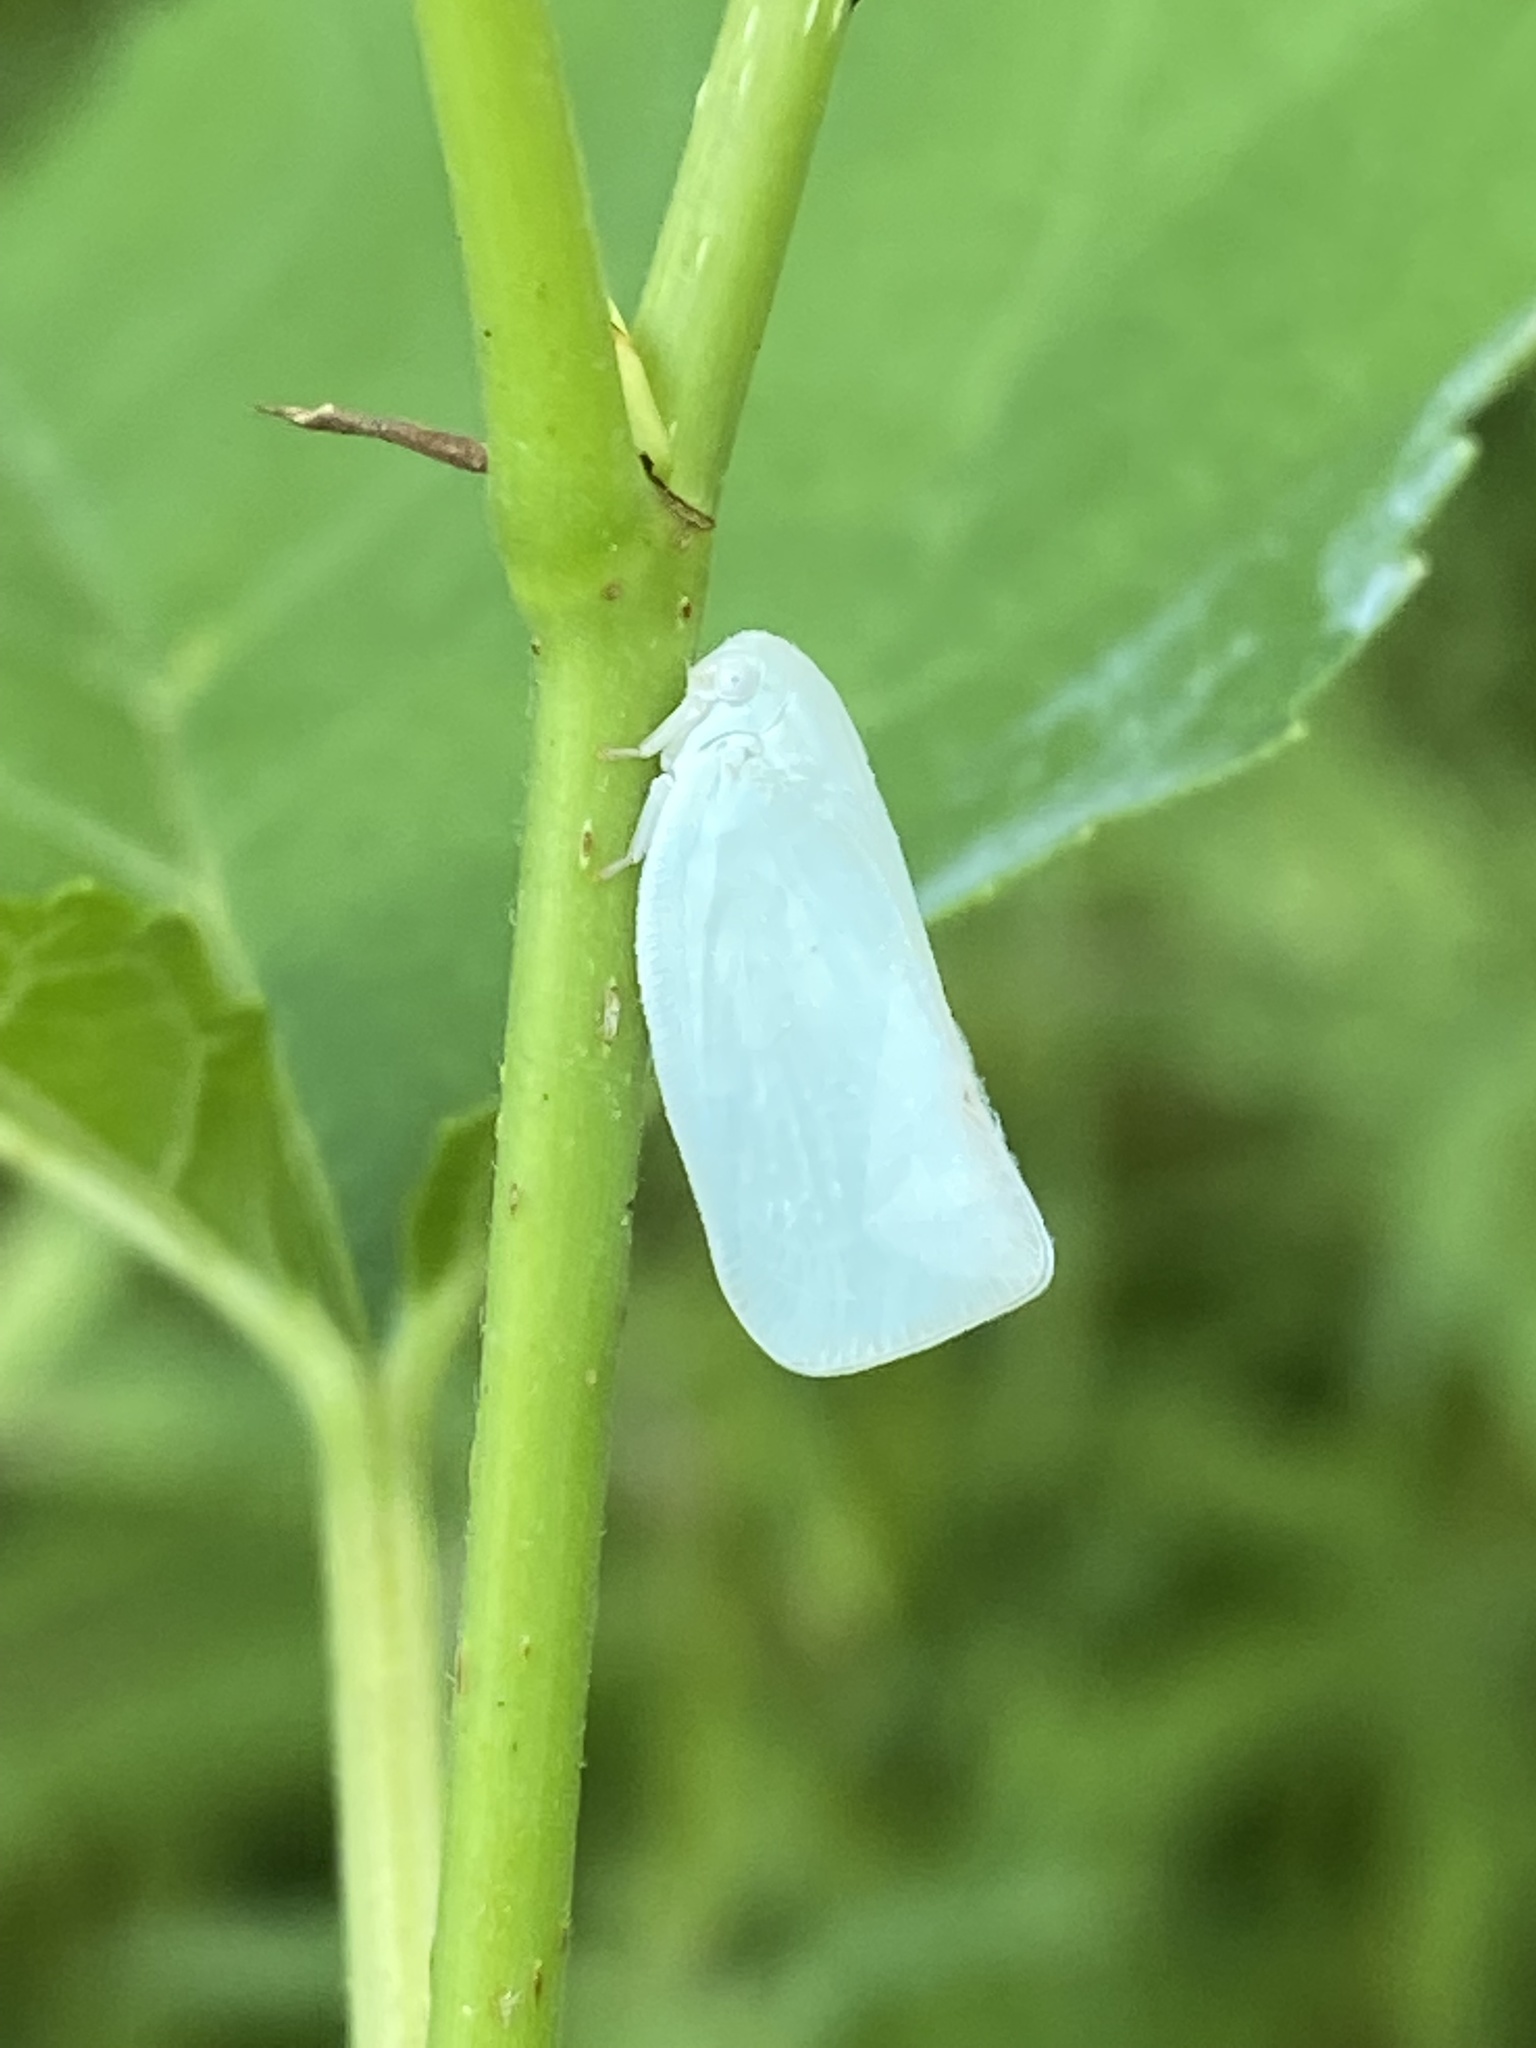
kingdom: Animalia
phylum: Arthropoda
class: Insecta
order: Hemiptera
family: Flatidae
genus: Flatormenis
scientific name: Flatormenis proxima
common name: Northern flatid planthopper
